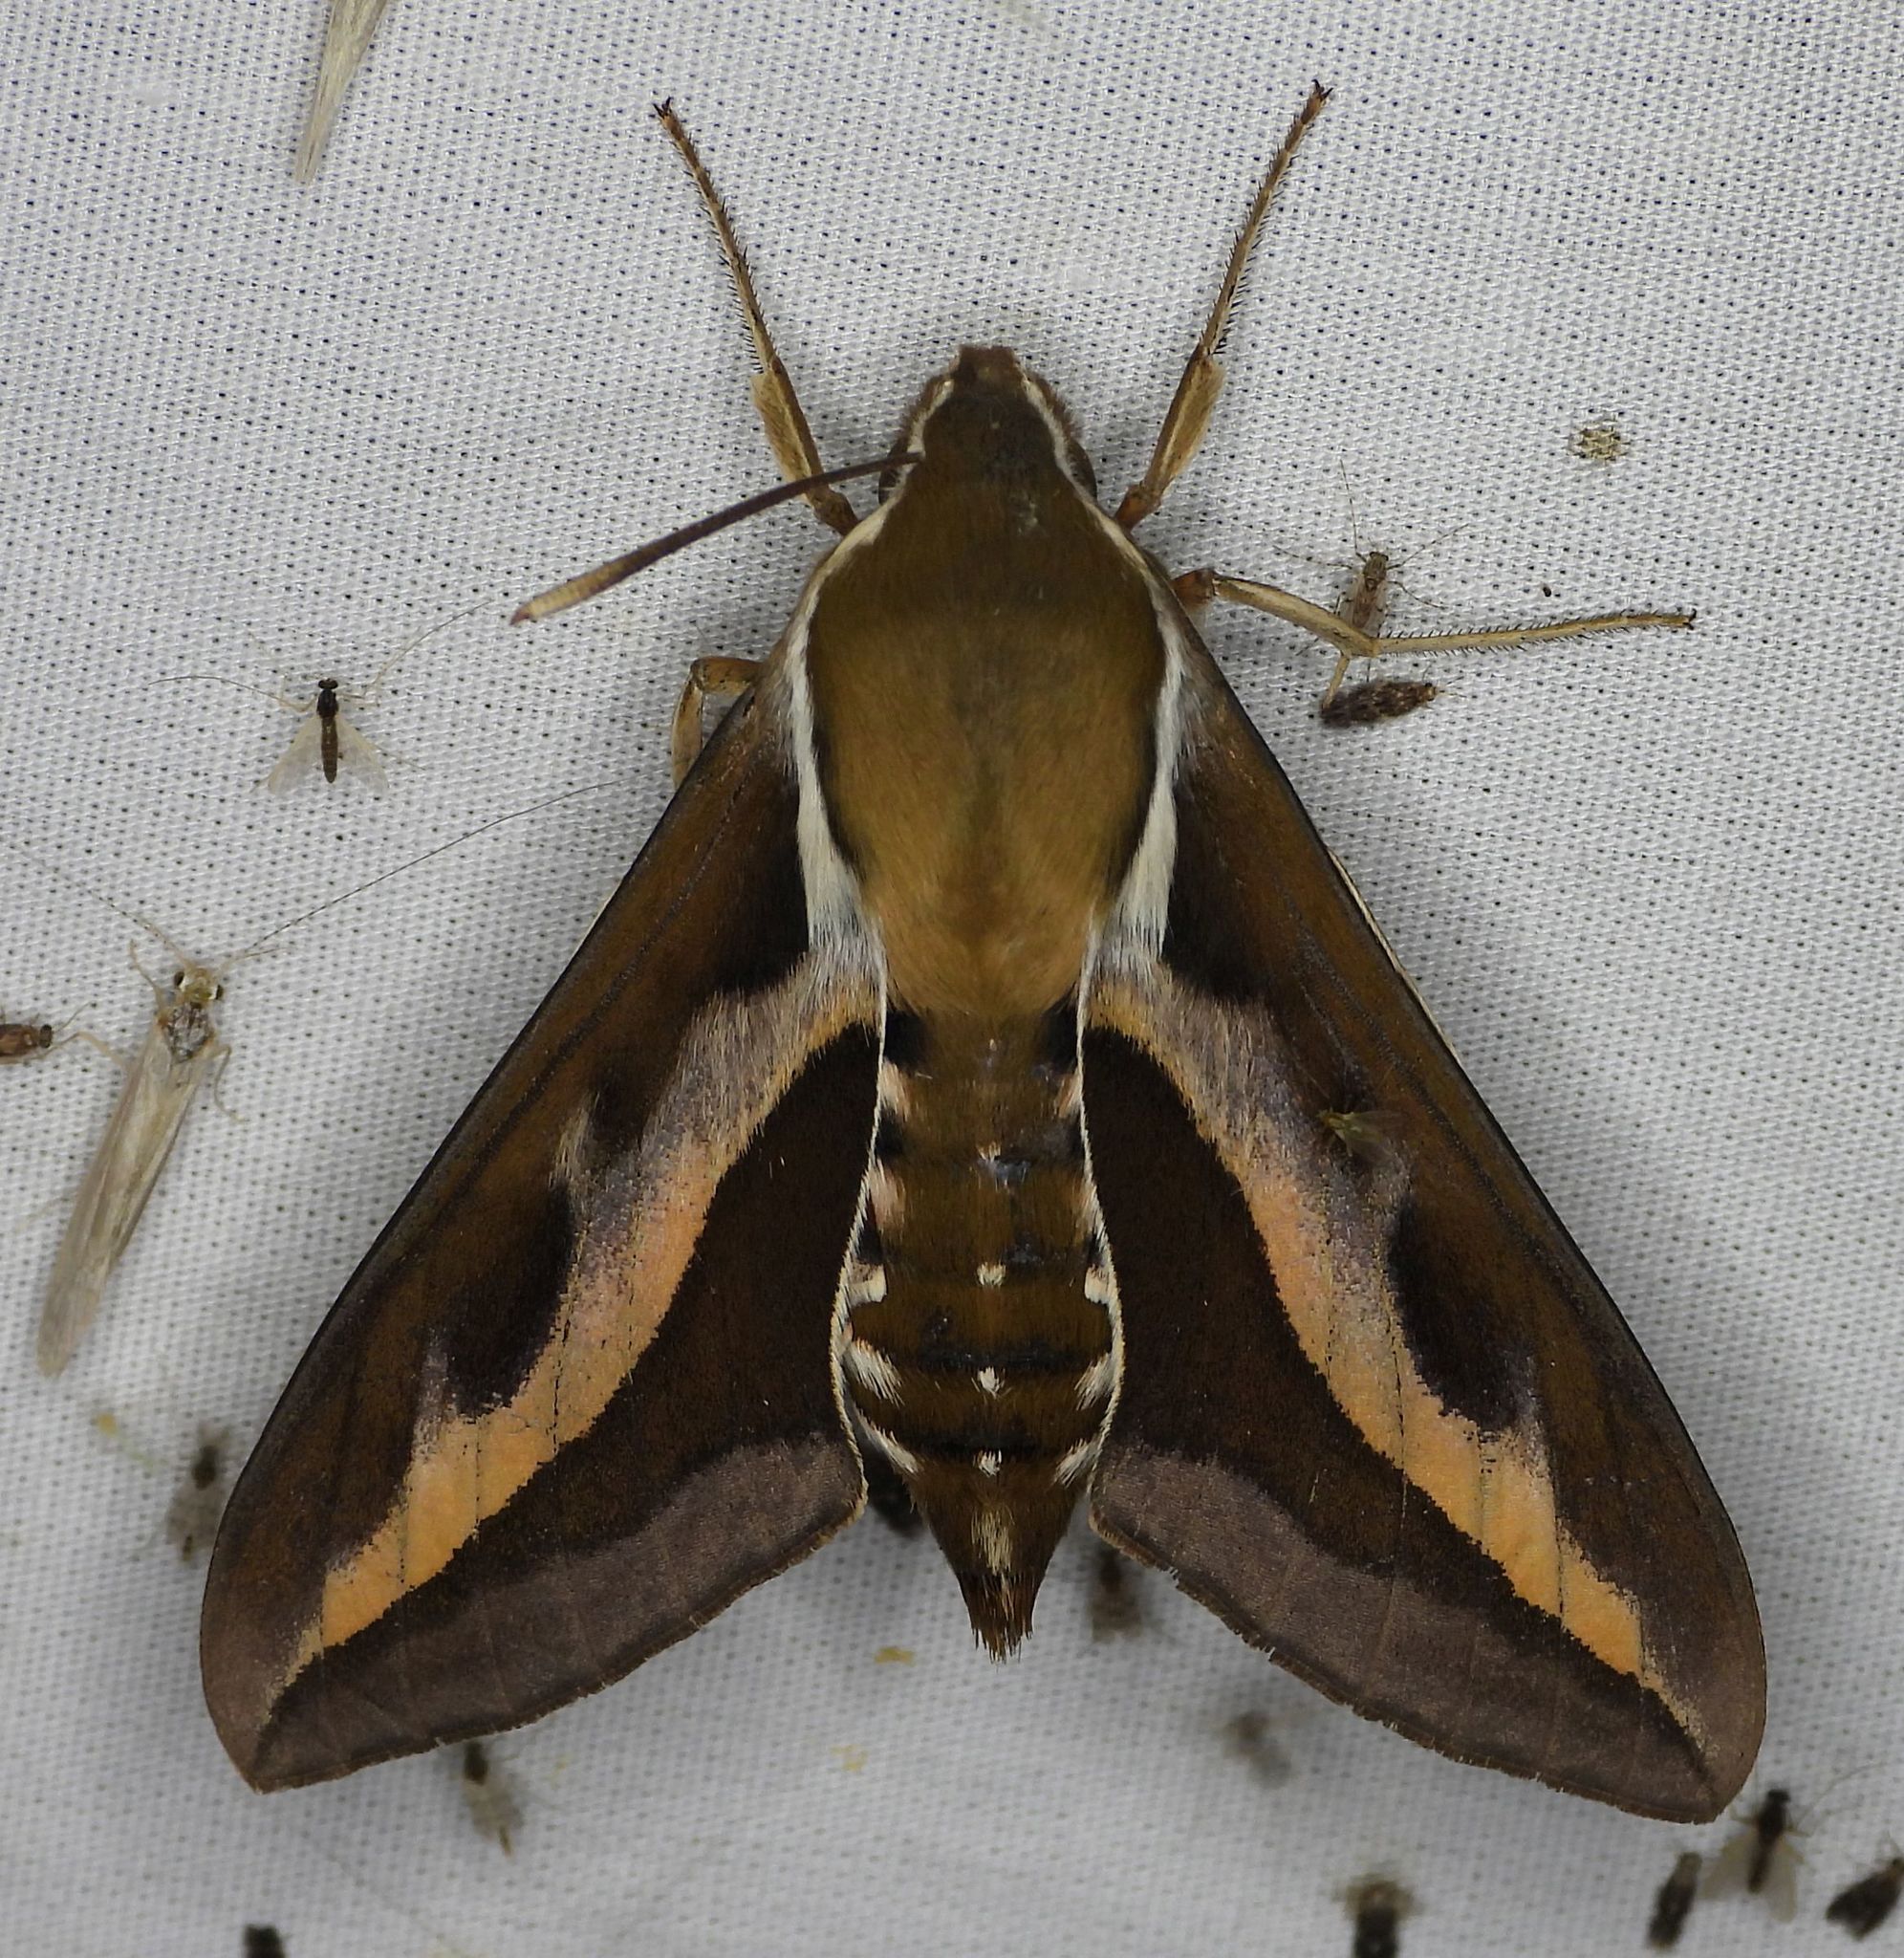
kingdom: Animalia
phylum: Arthropoda
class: Insecta
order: Lepidoptera
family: Sphingidae
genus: Hyles
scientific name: Hyles gallii
